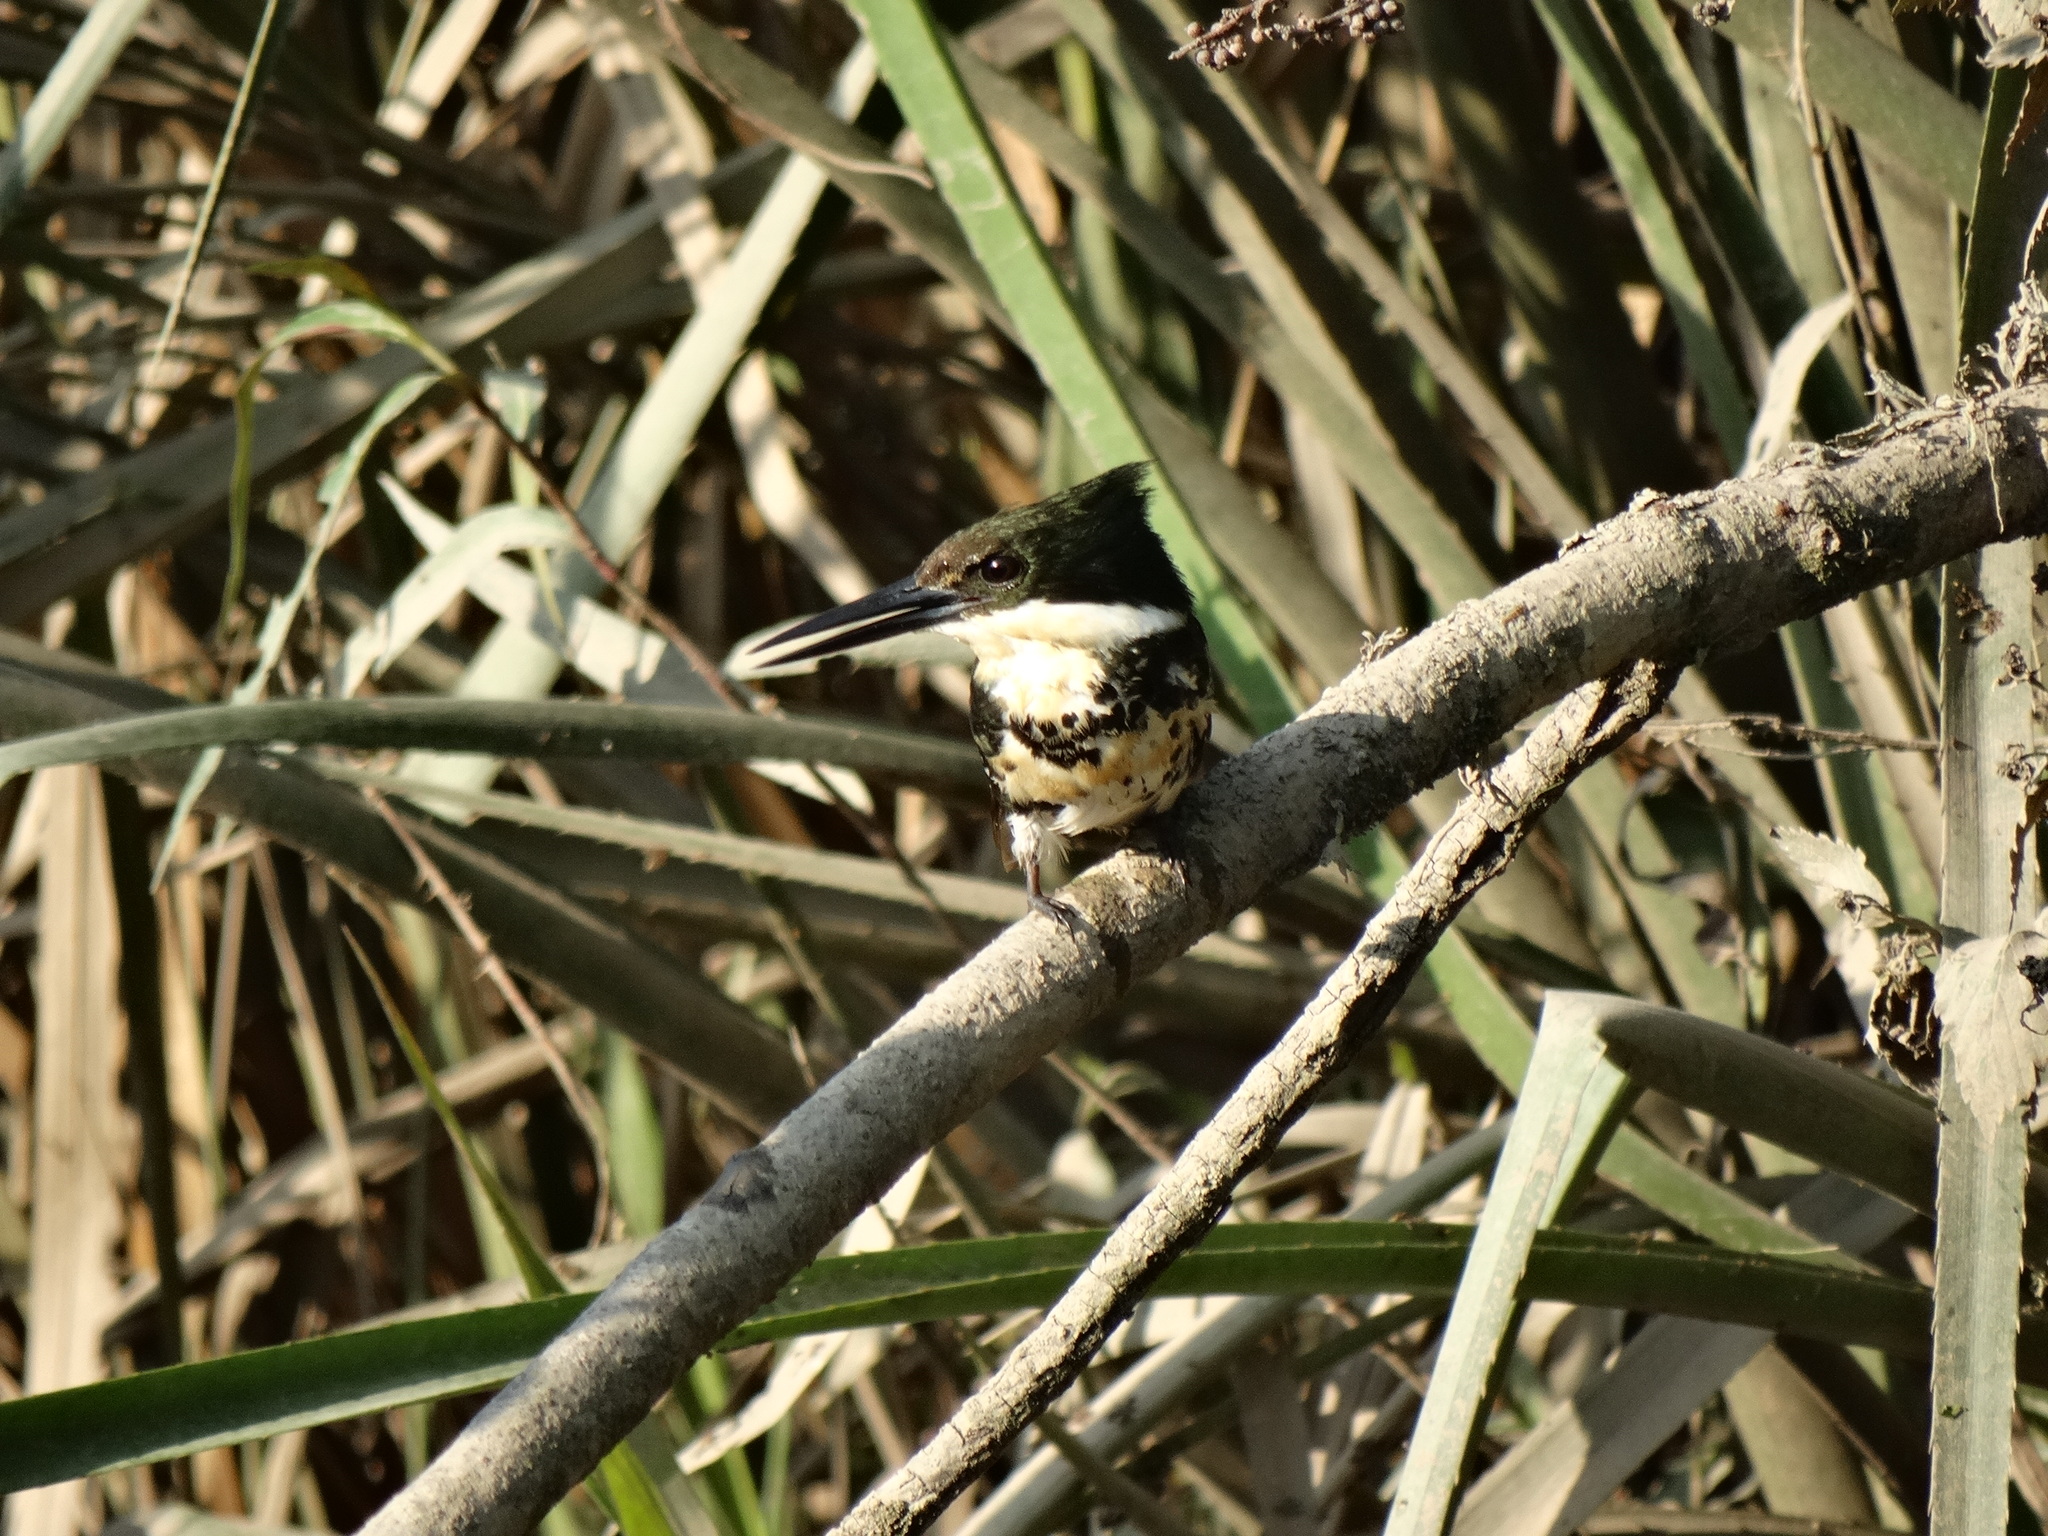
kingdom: Animalia
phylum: Chordata
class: Aves
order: Coraciiformes
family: Alcedinidae
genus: Chloroceryle
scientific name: Chloroceryle americana
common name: Green kingfisher
